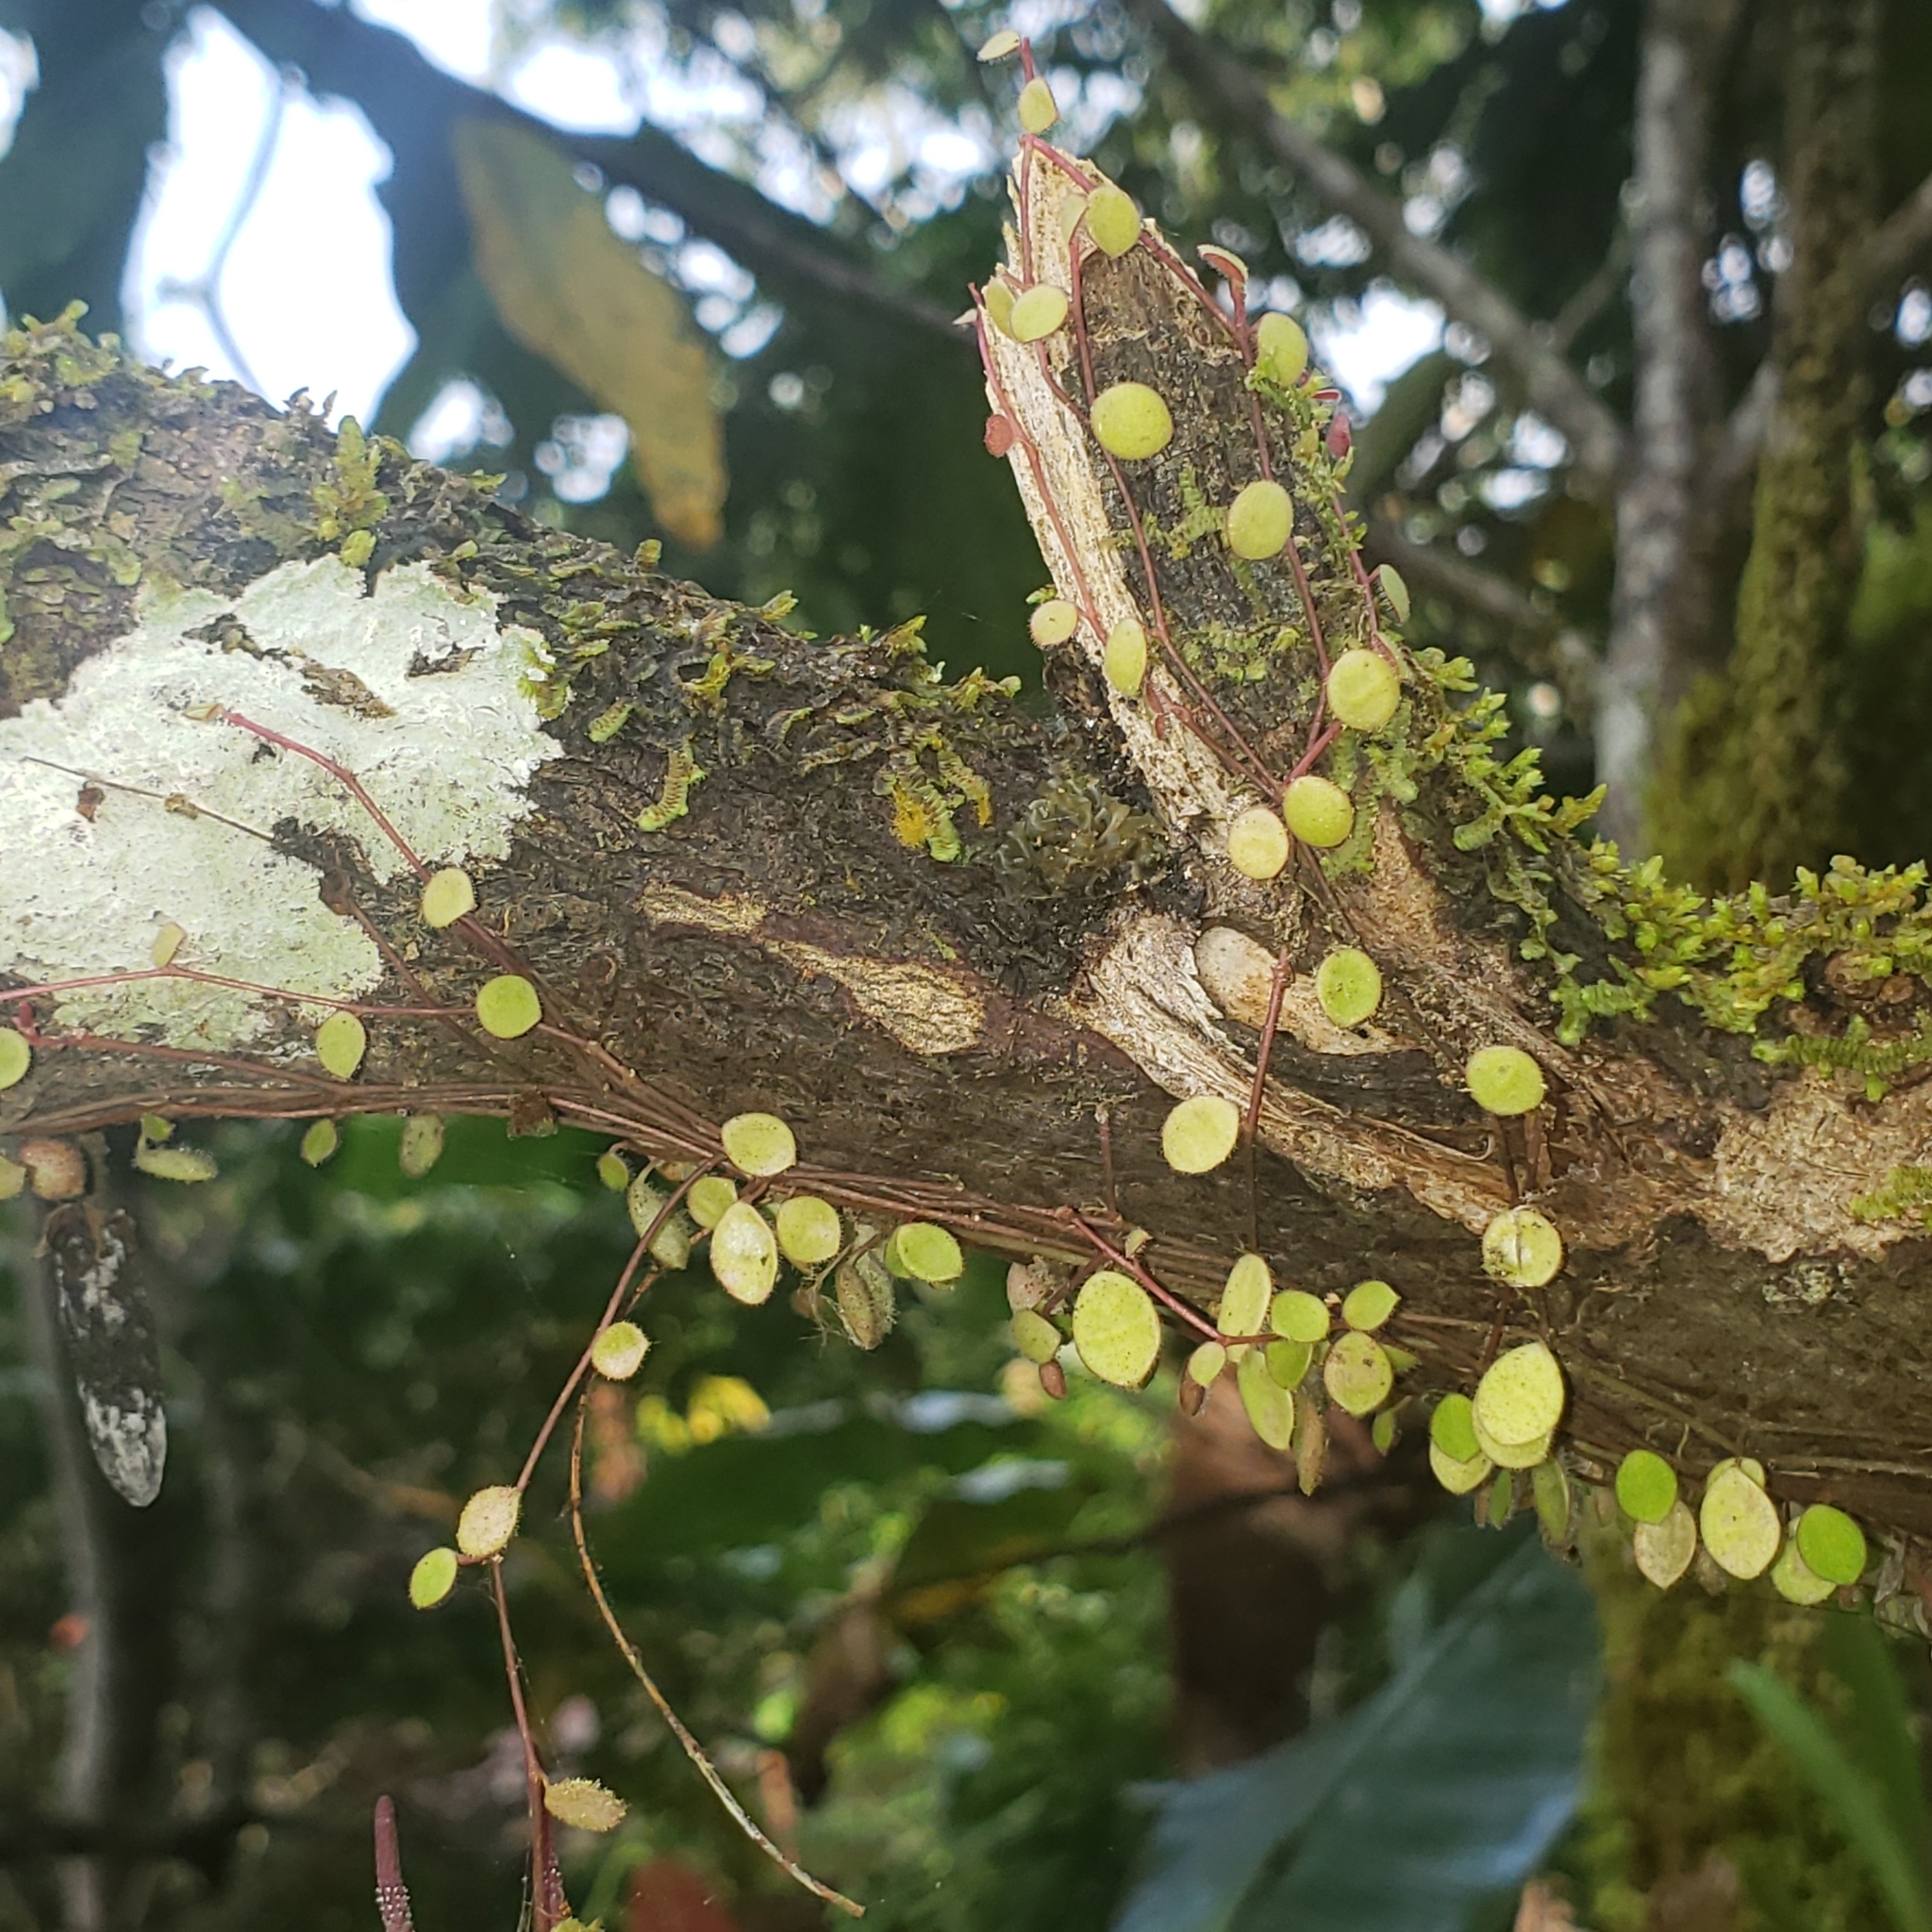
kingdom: Plantae
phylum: Tracheophyta
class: Magnoliopsida
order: Piperales
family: Piperaceae
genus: Peperomia
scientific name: Peperomia rotundifolia
